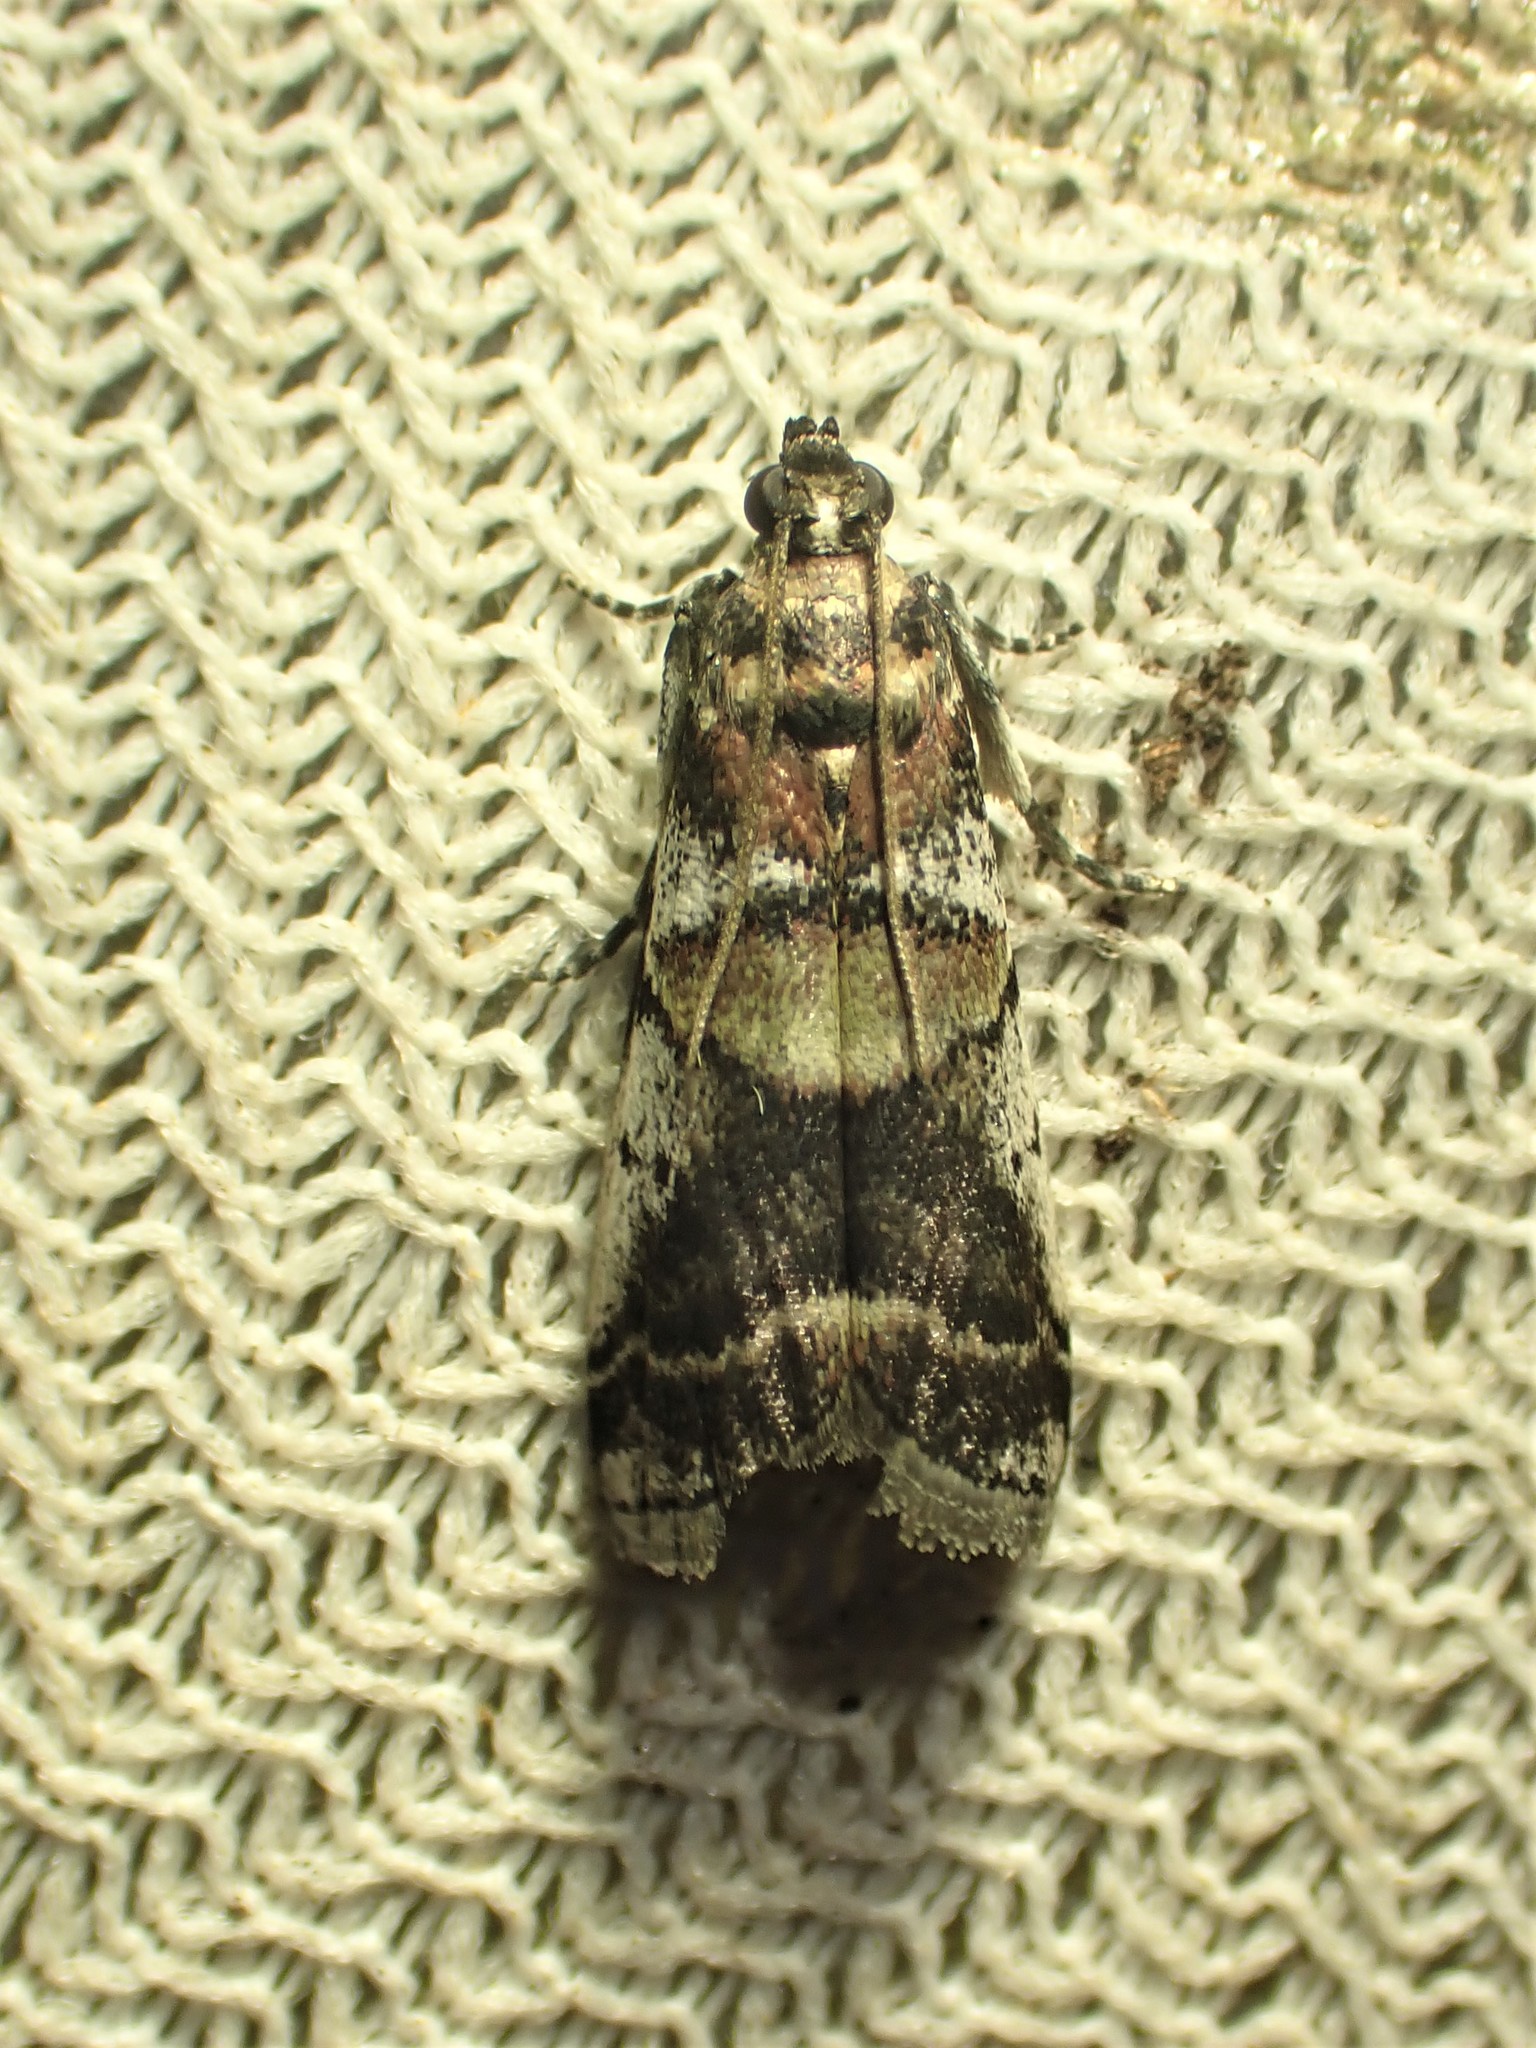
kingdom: Animalia
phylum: Arthropoda
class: Insecta
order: Lepidoptera
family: Pyralidae
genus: Acrobasis
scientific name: Acrobasis indigenella
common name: Leaf crumpler moth
